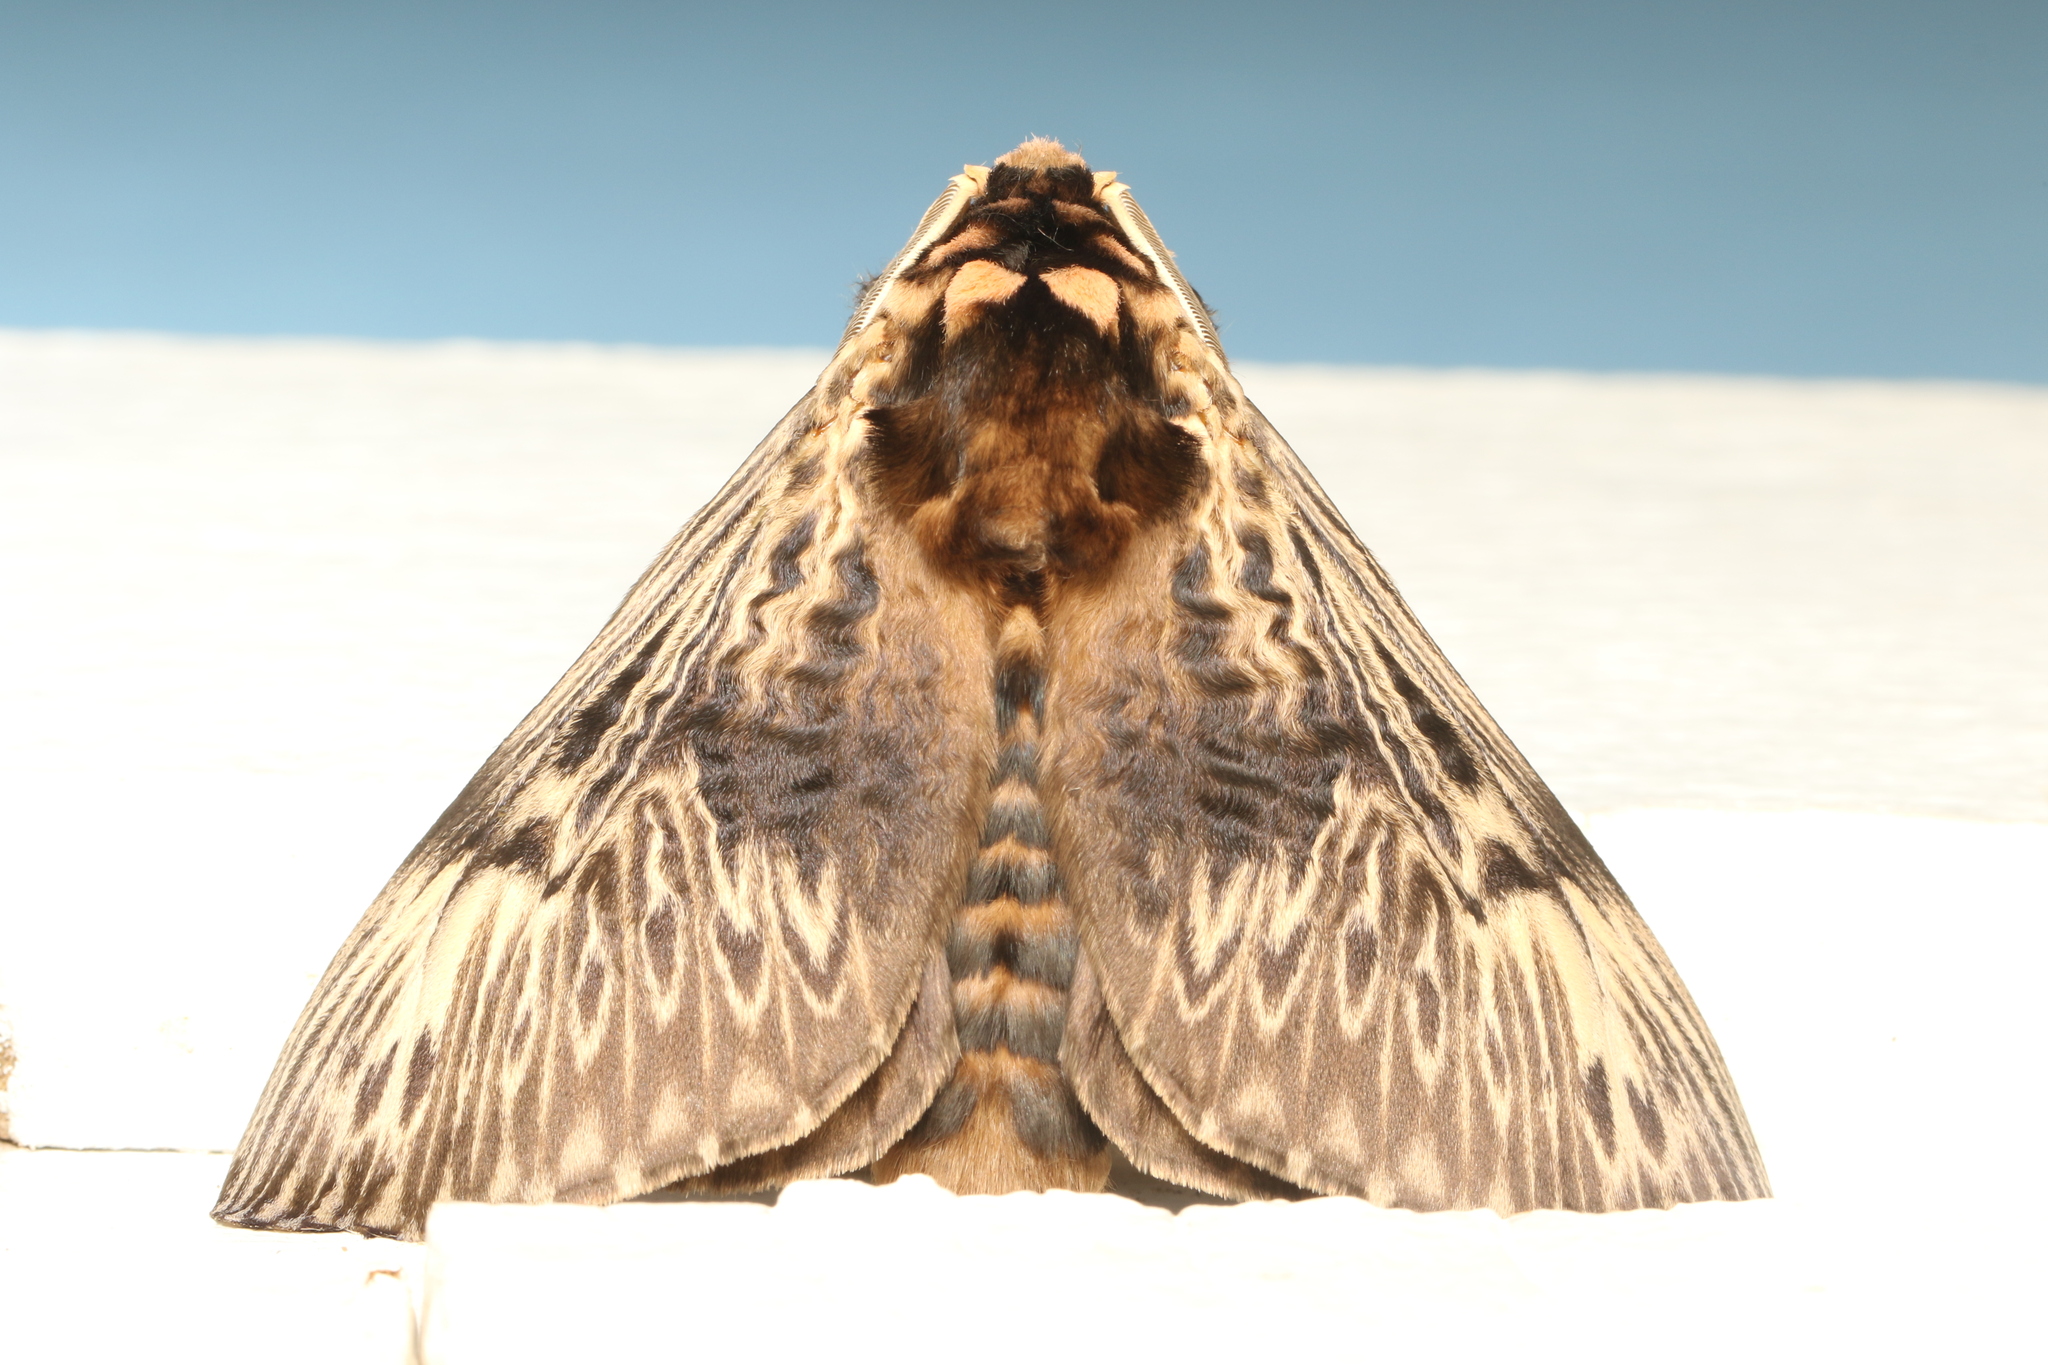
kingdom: Animalia
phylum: Arthropoda
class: Insecta
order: Lepidoptera
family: Megalopygidae
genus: Podalia
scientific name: Podalia fuscescens
